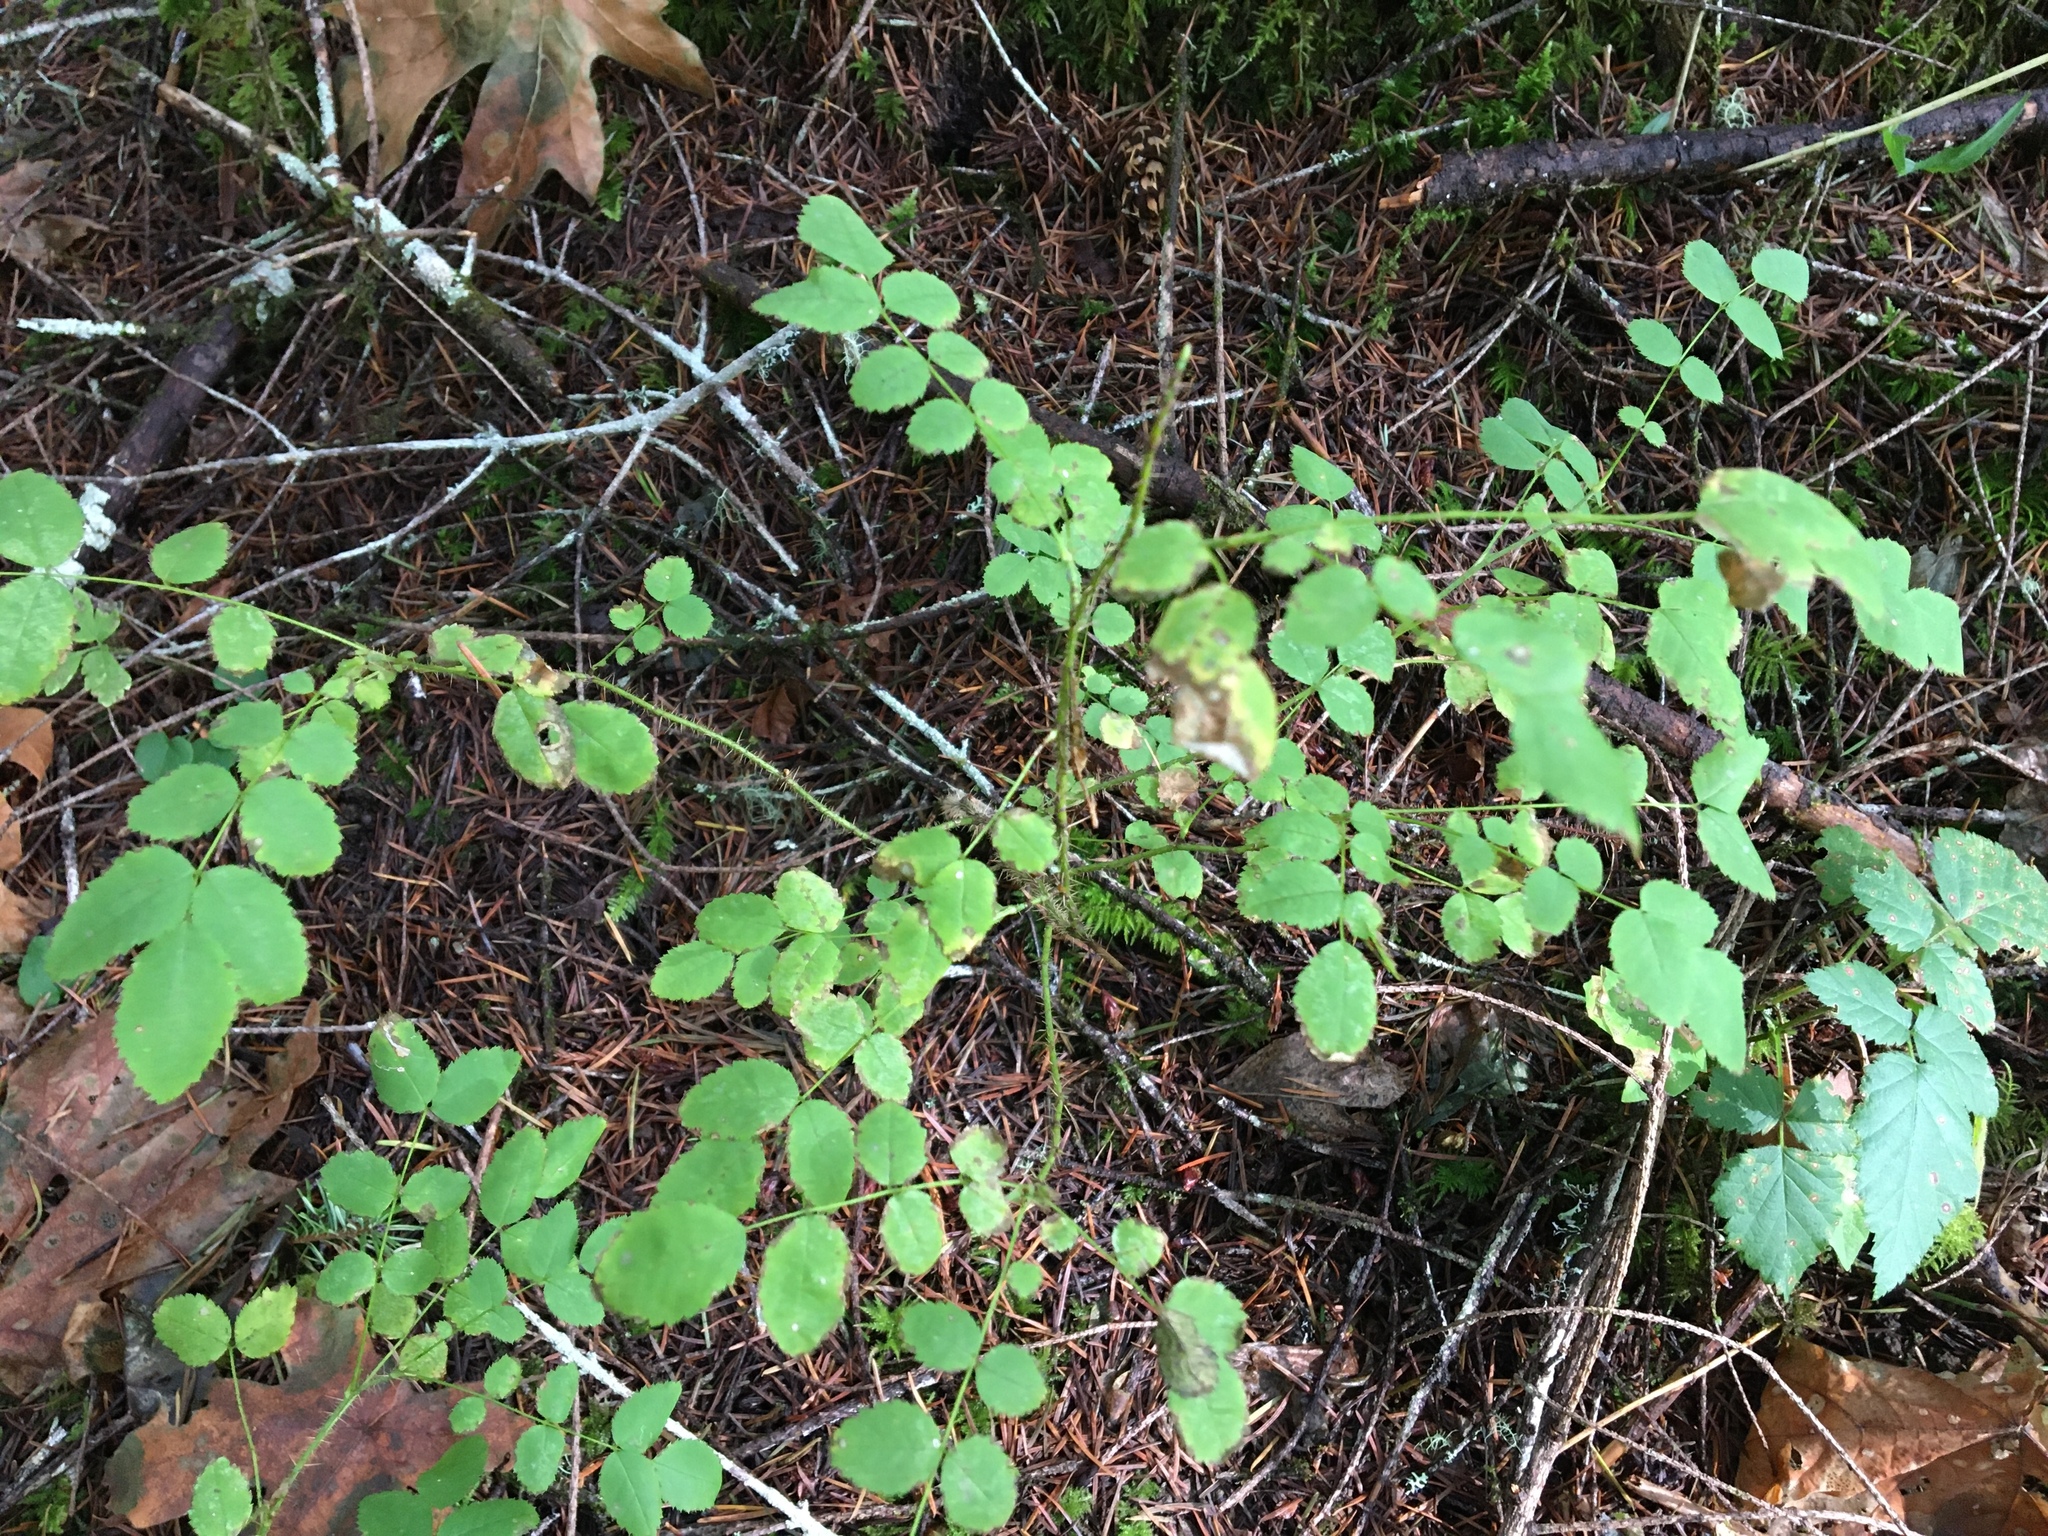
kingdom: Plantae
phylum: Tracheophyta
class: Magnoliopsida
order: Rosales
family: Rosaceae
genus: Rosa
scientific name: Rosa gymnocarpa
